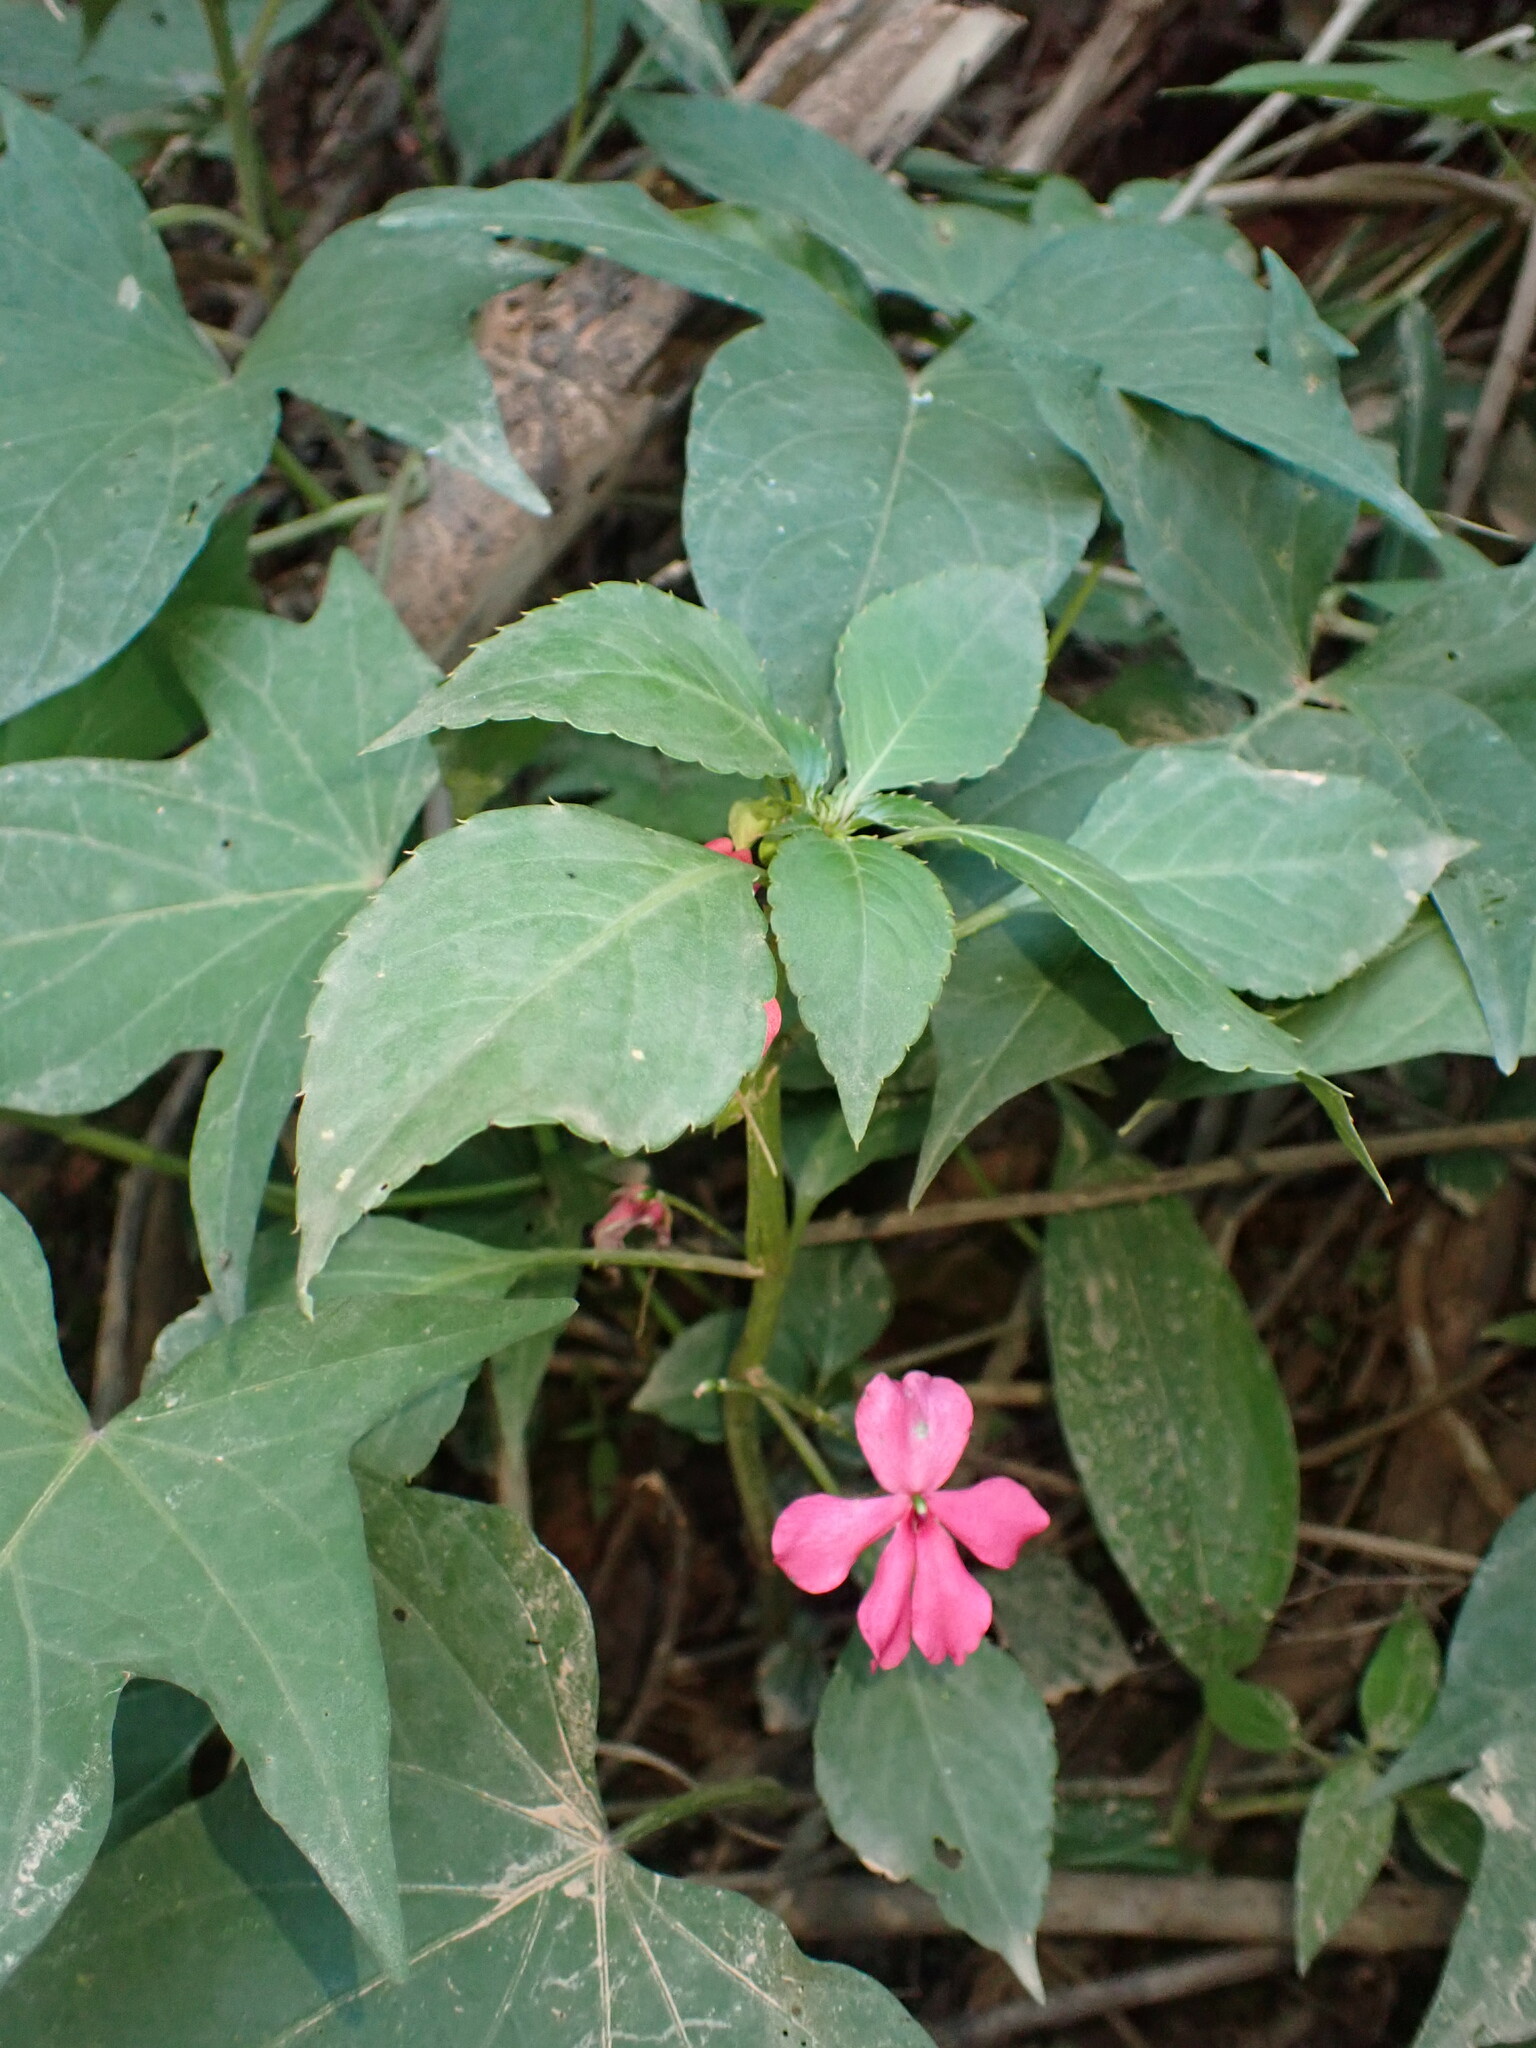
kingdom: Plantae
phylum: Tracheophyta
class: Magnoliopsida
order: Ericales
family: Balsaminaceae
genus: Impatiens
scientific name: Impatiens walleriana
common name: Buzzy lizzy
